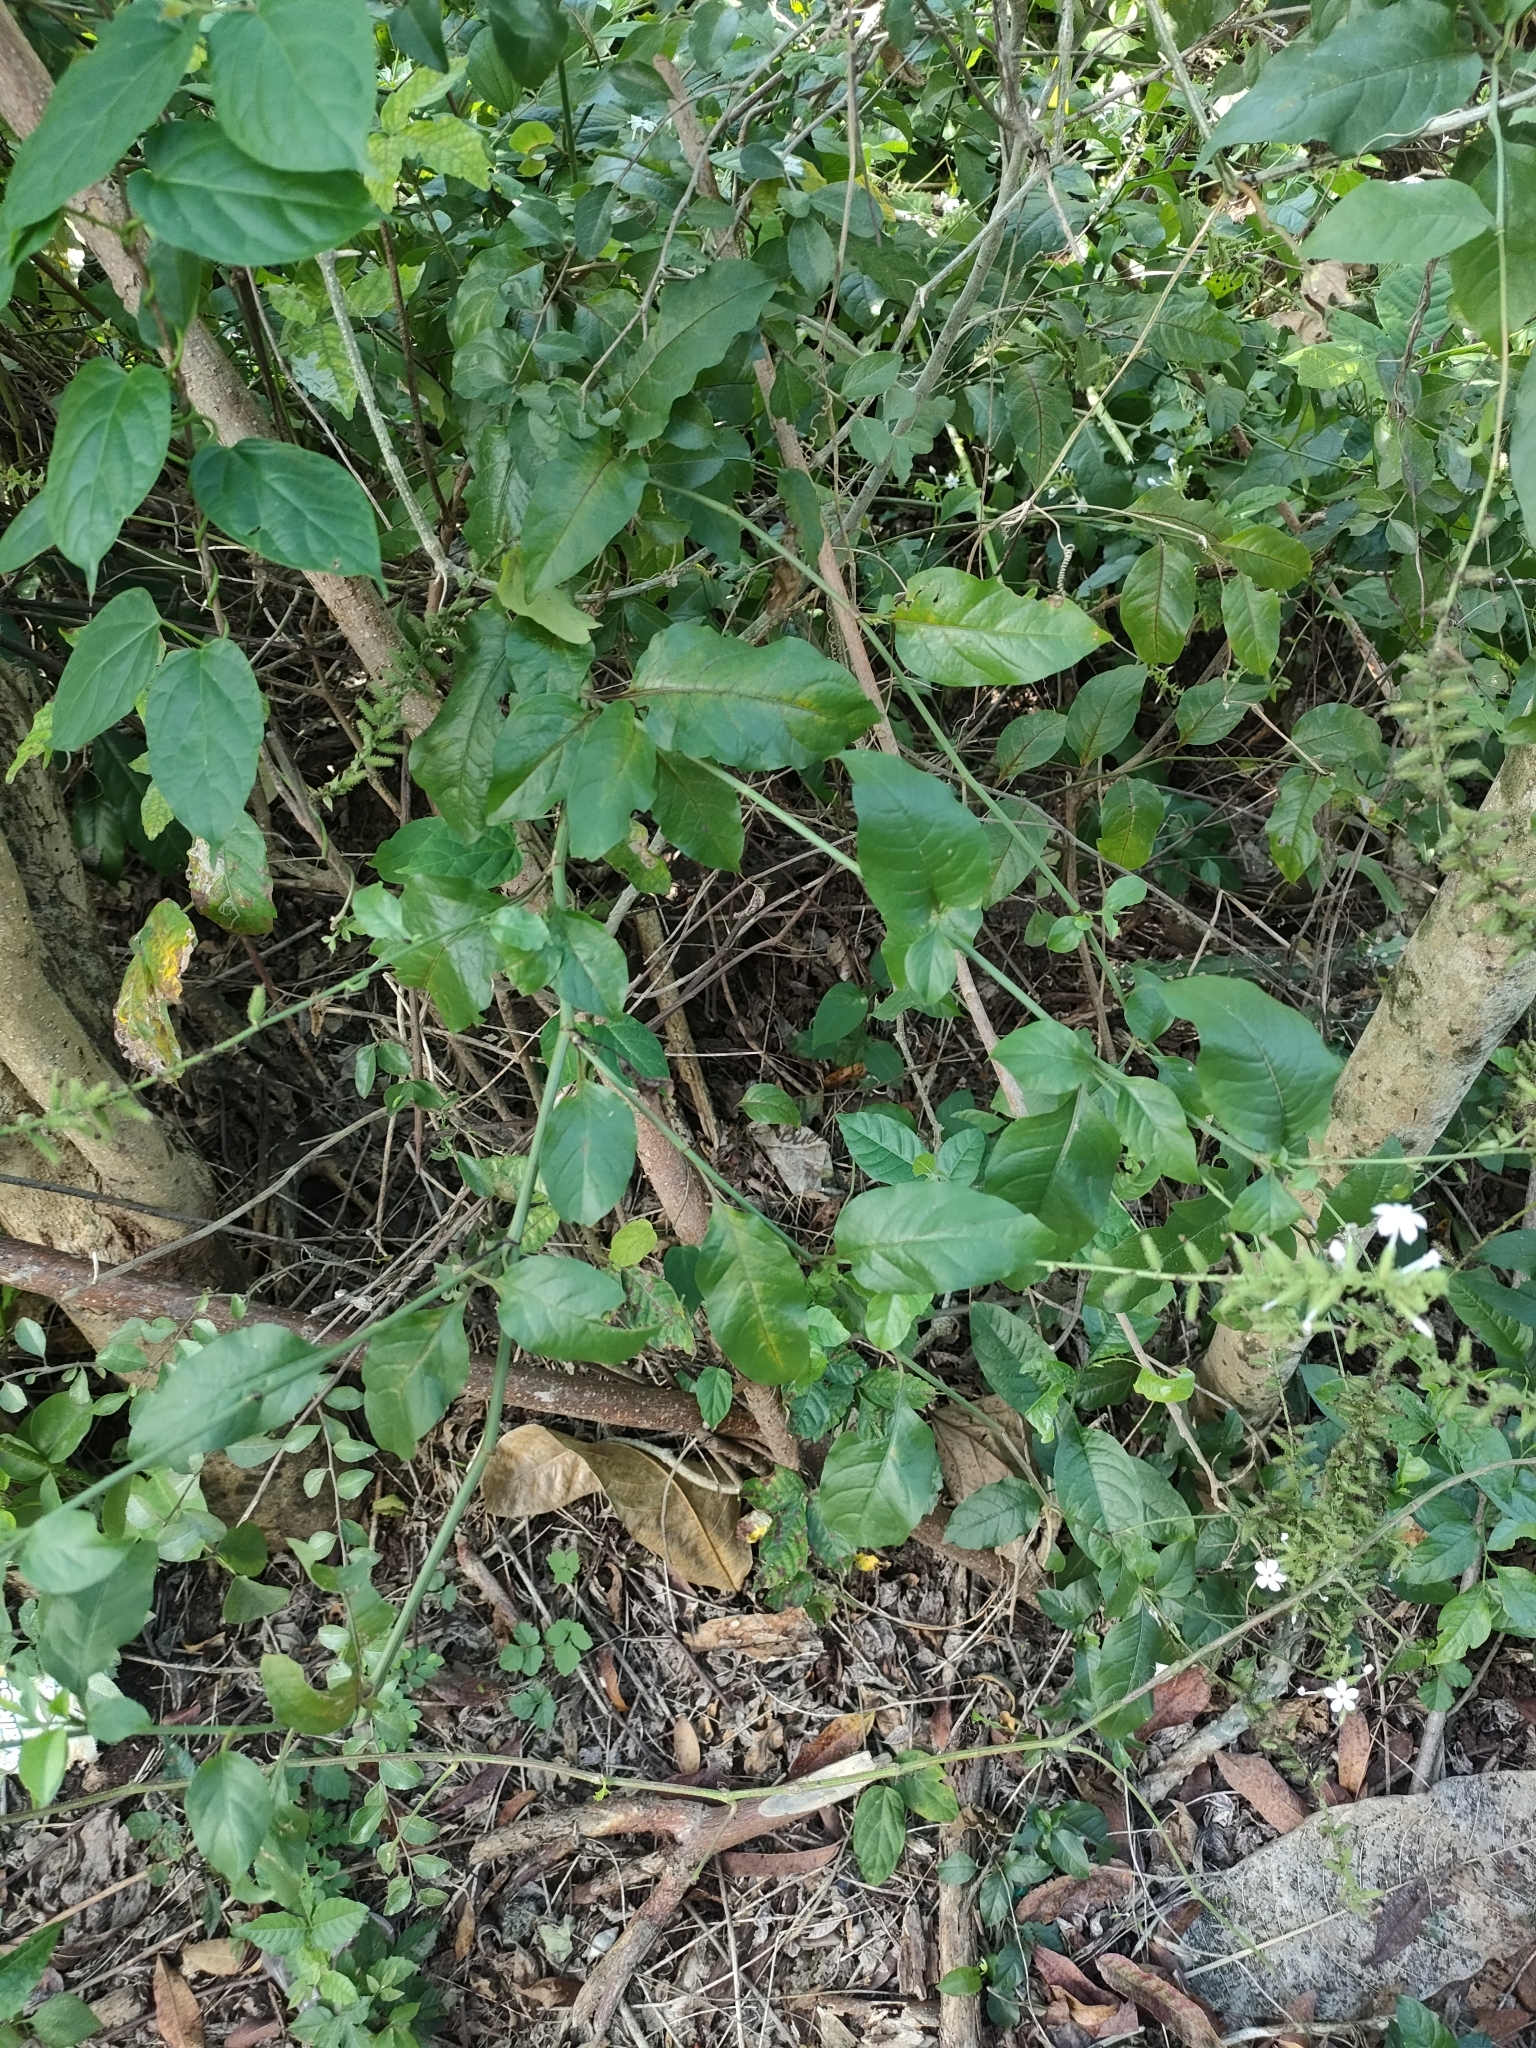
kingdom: Plantae
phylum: Tracheophyta
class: Magnoliopsida
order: Caryophyllales
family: Plumbaginaceae
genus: Plumbago
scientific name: Plumbago zeylanica
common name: Doctorbush
